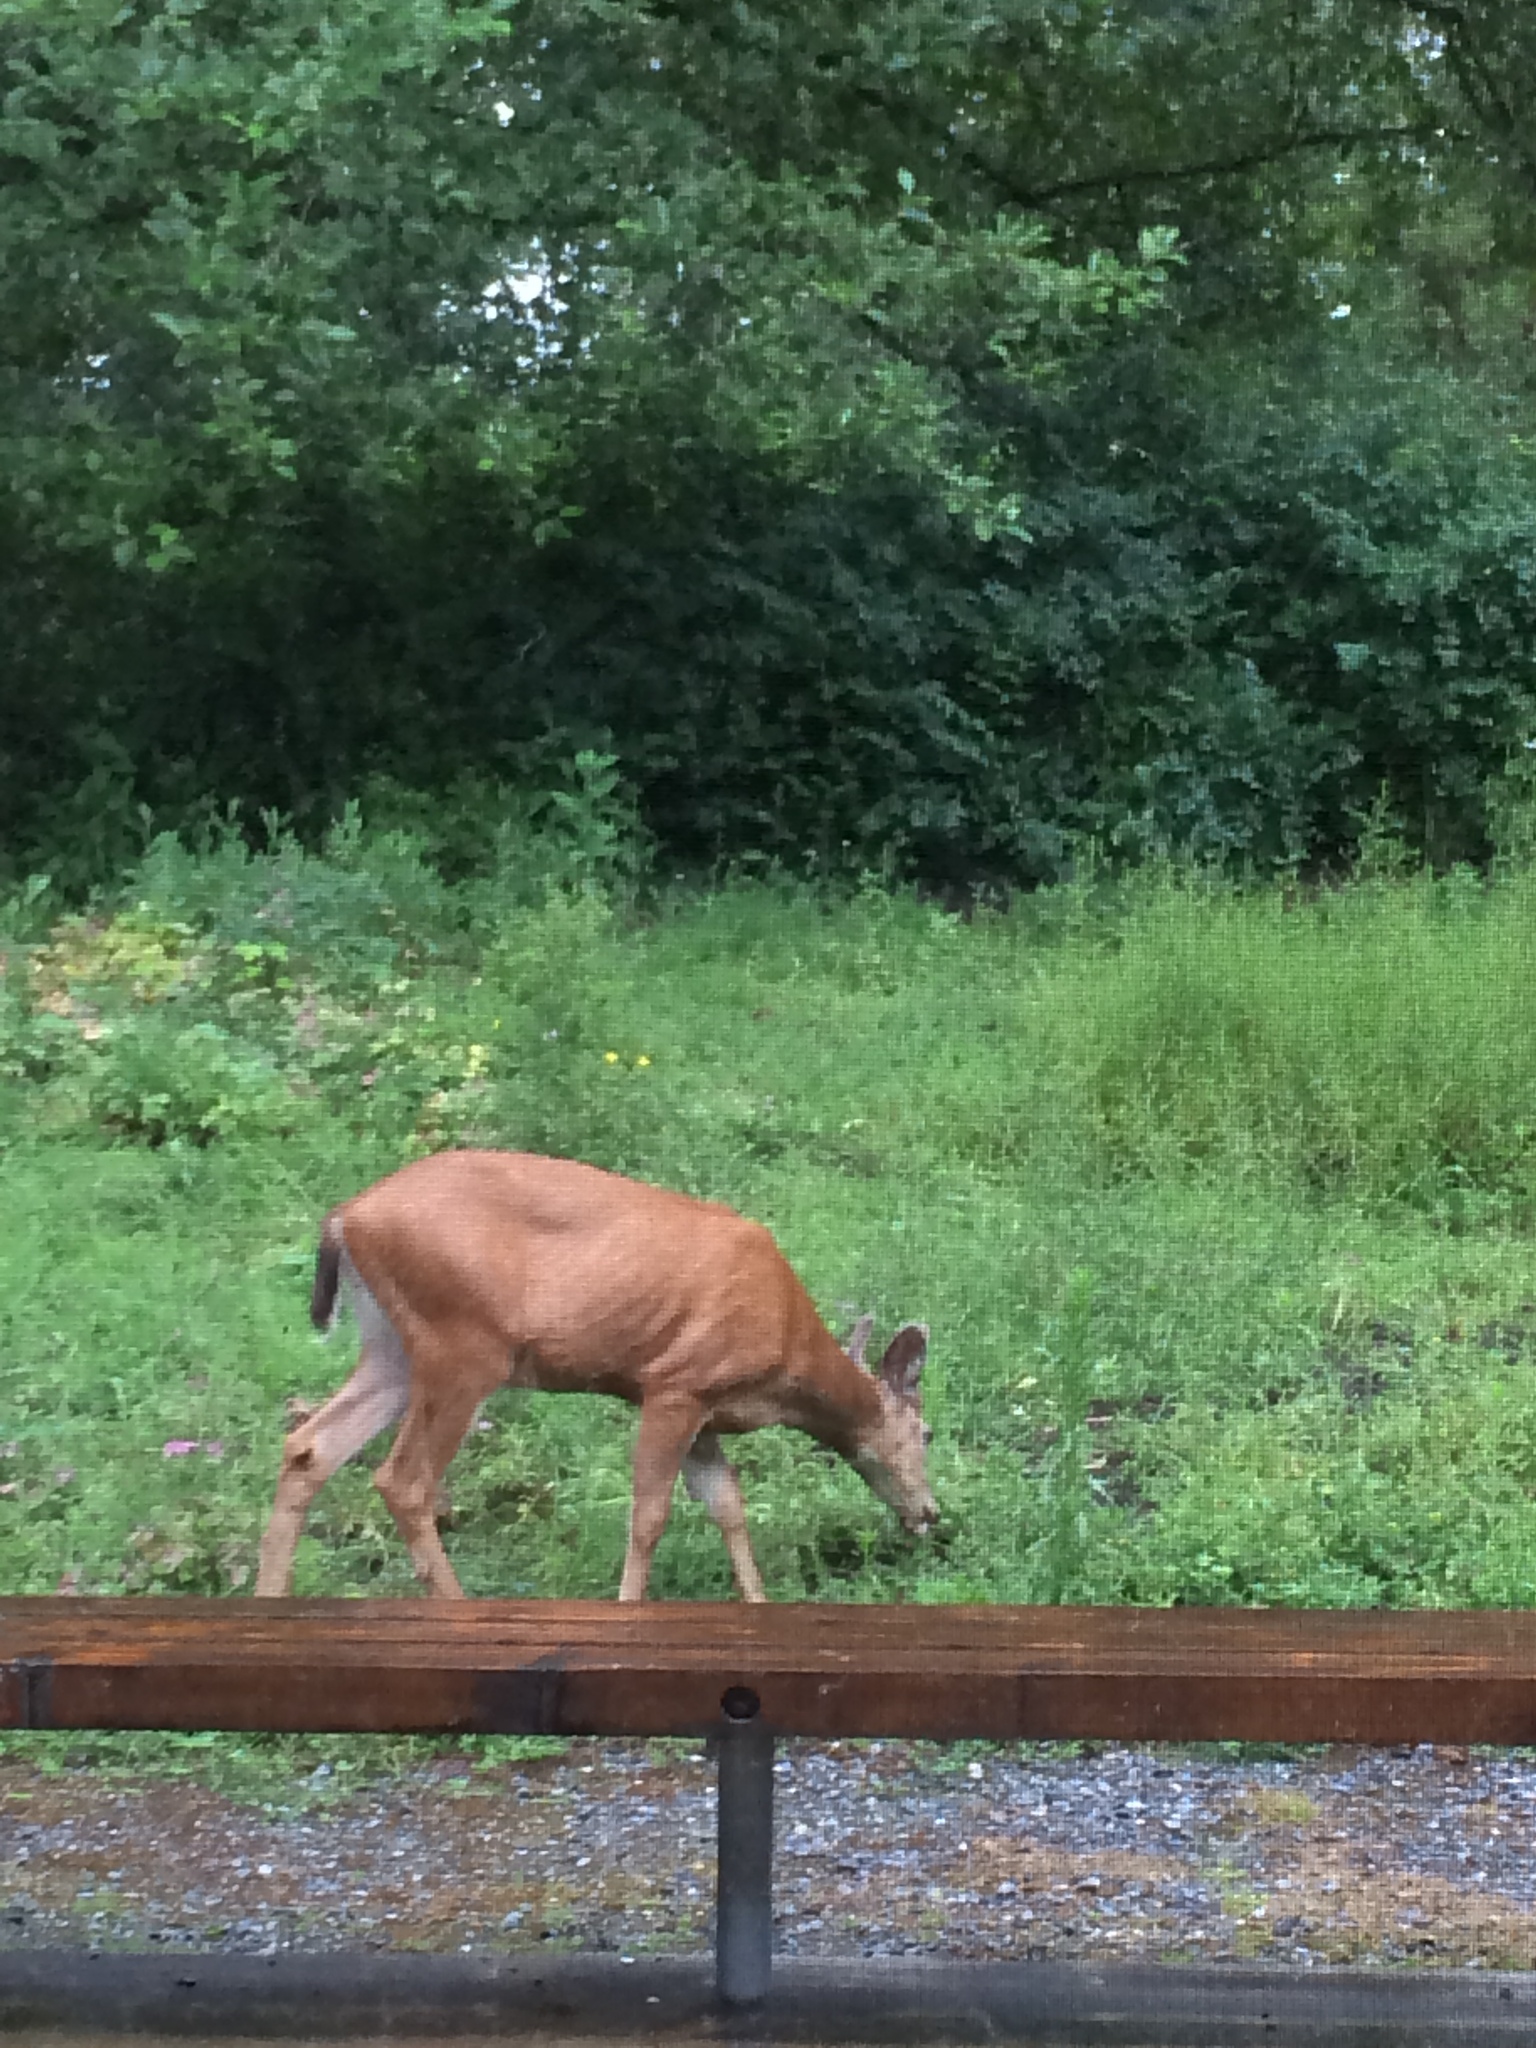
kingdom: Animalia
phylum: Chordata
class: Mammalia
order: Artiodactyla
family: Cervidae
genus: Odocoileus
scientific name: Odocoileus hemionus
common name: Mule deer
